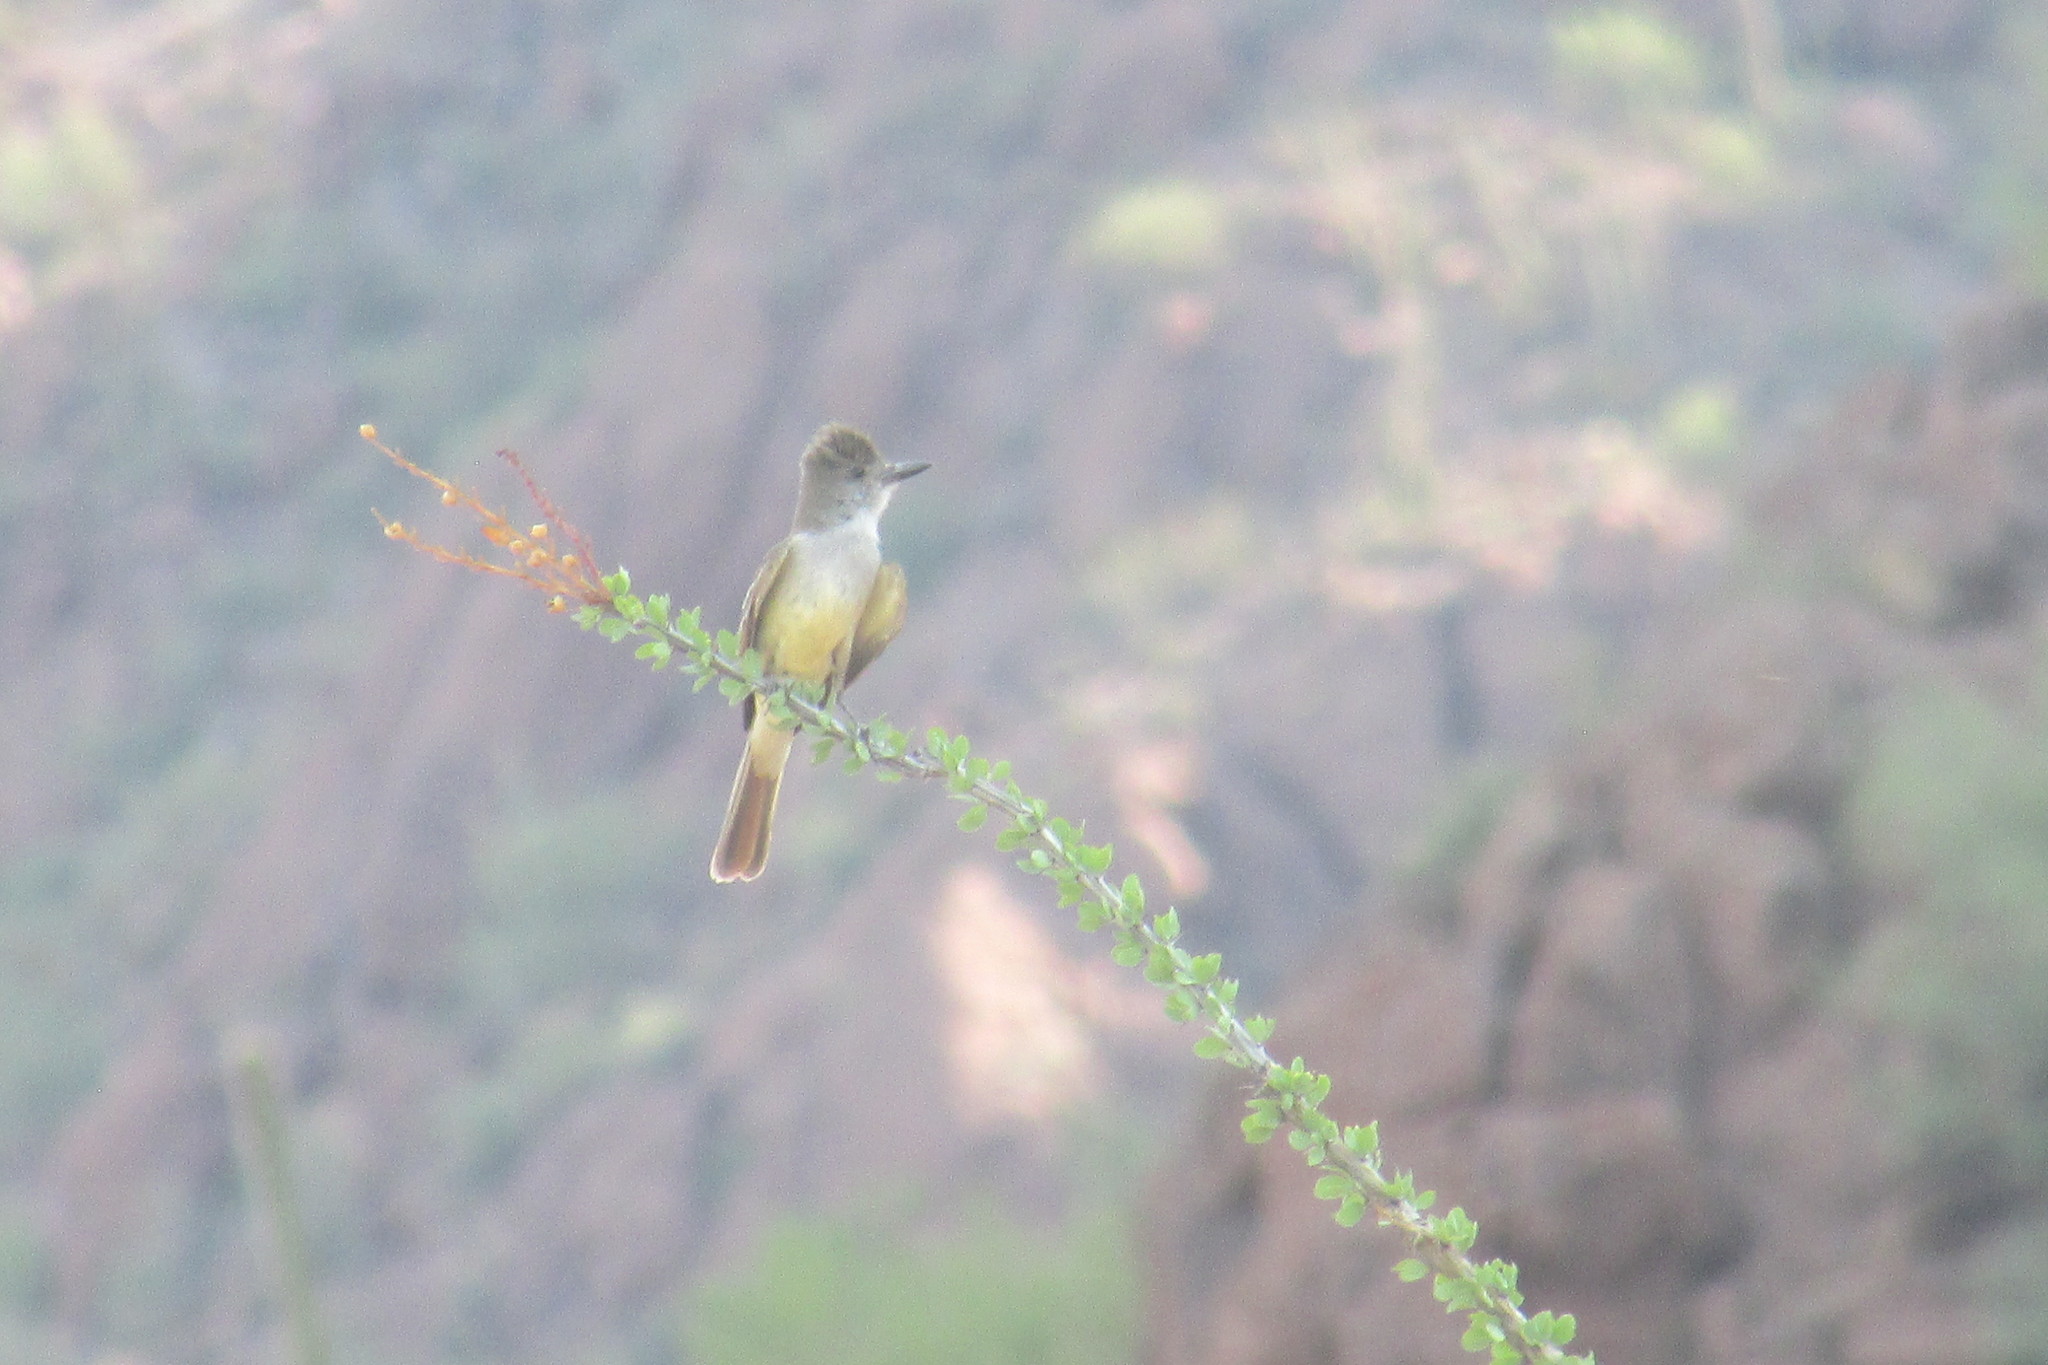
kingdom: Animalia
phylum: Chordata
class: Aves
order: Passeriformes
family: Tyrannidae
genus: Myiarchus
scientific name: Myiarchus tyrannulus
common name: Brown-crested flycatcher
